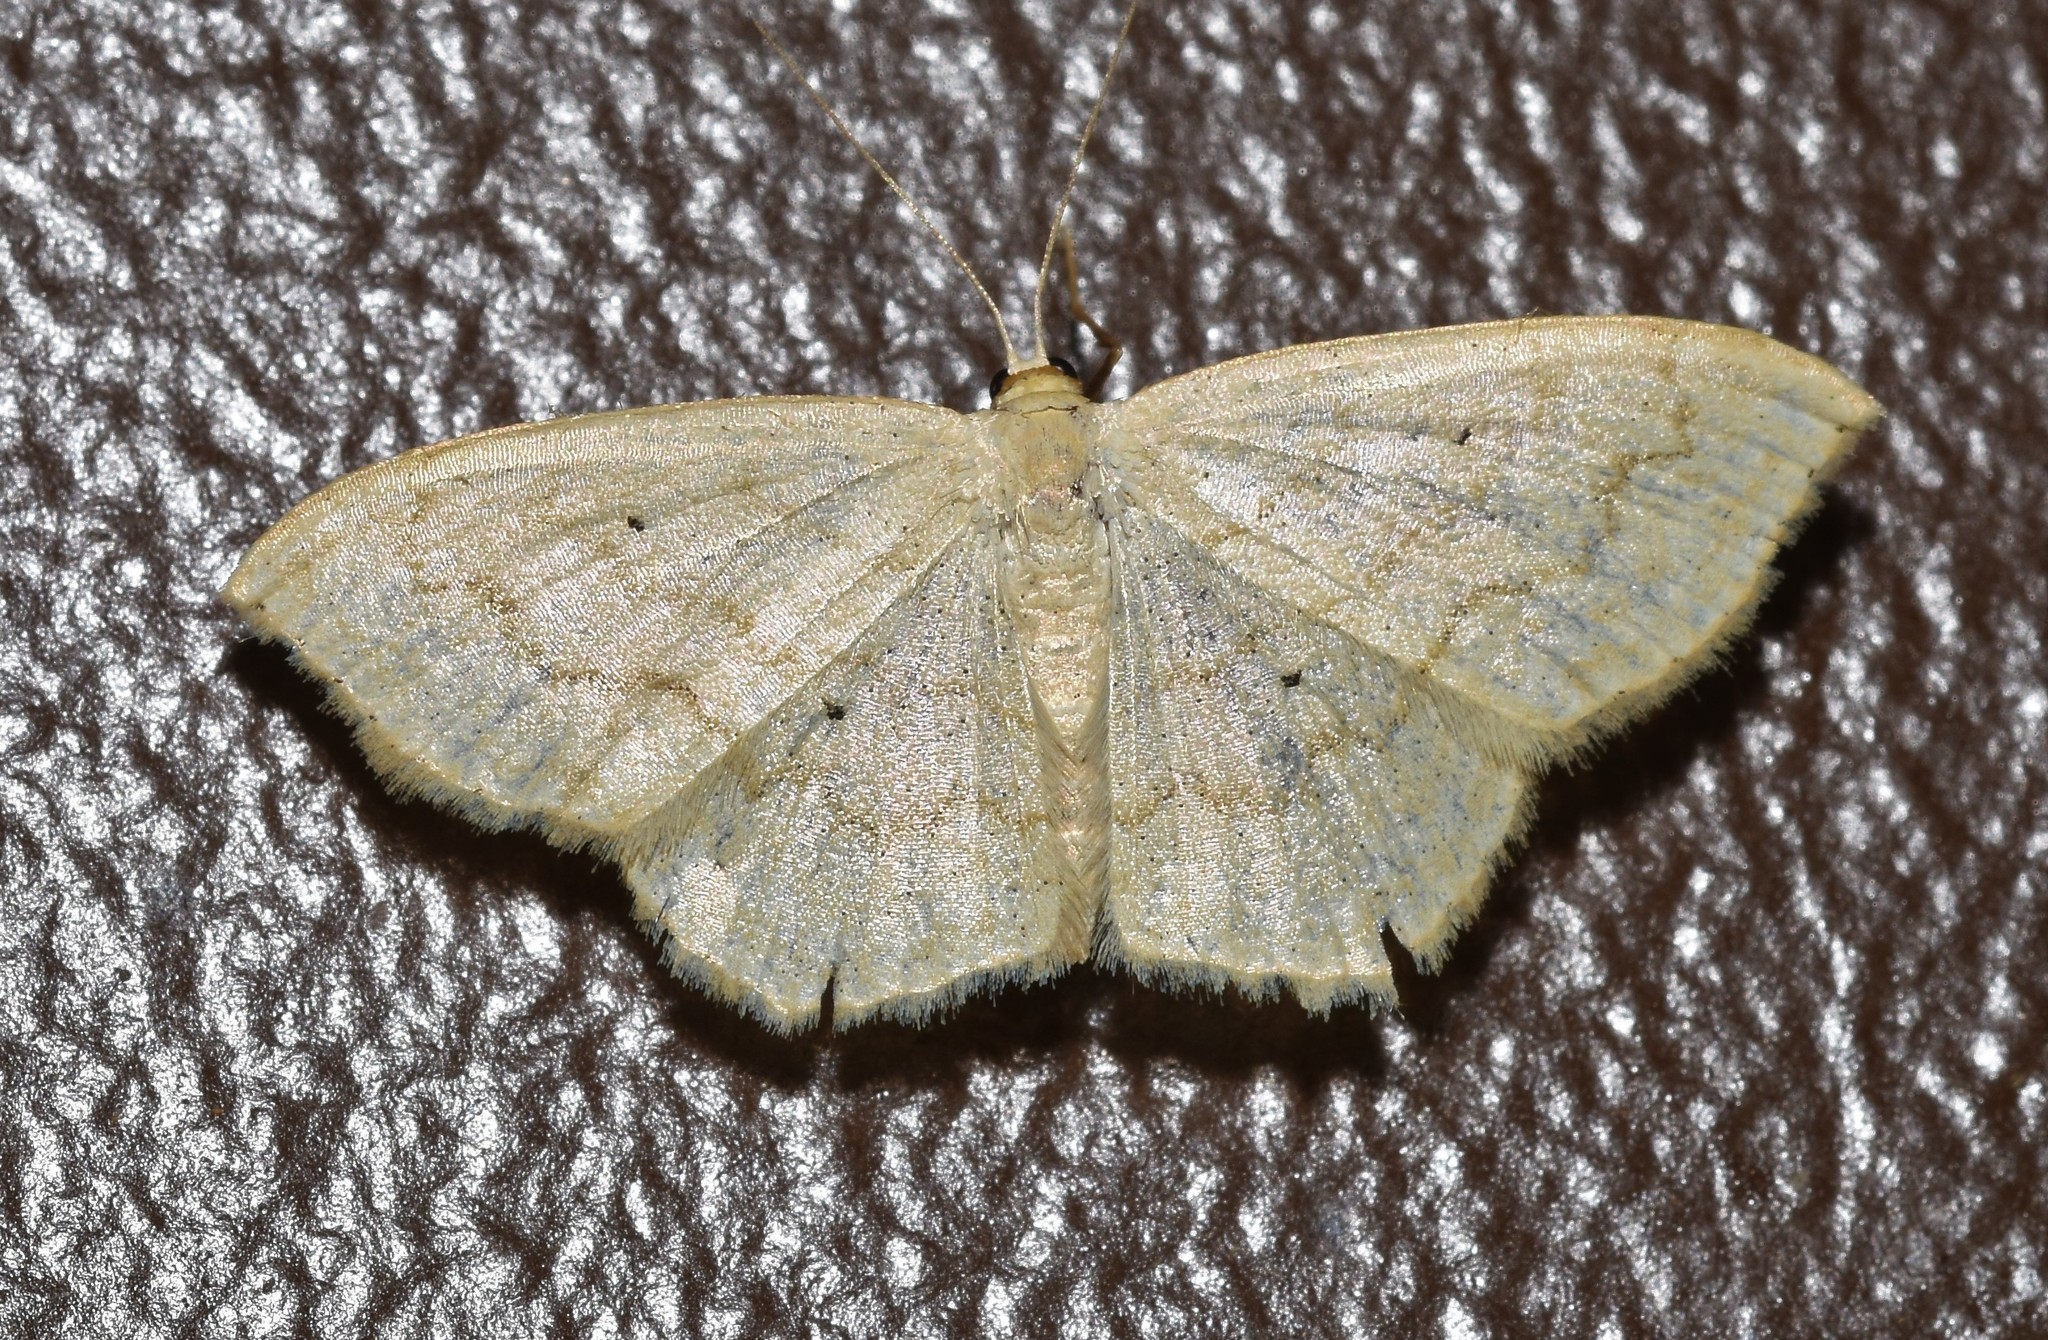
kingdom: Animalia
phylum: Arthropoda
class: Insecta
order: Lepidoptera
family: Geometridae
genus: Scopula
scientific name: Scopula limboundata
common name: Large lace border
